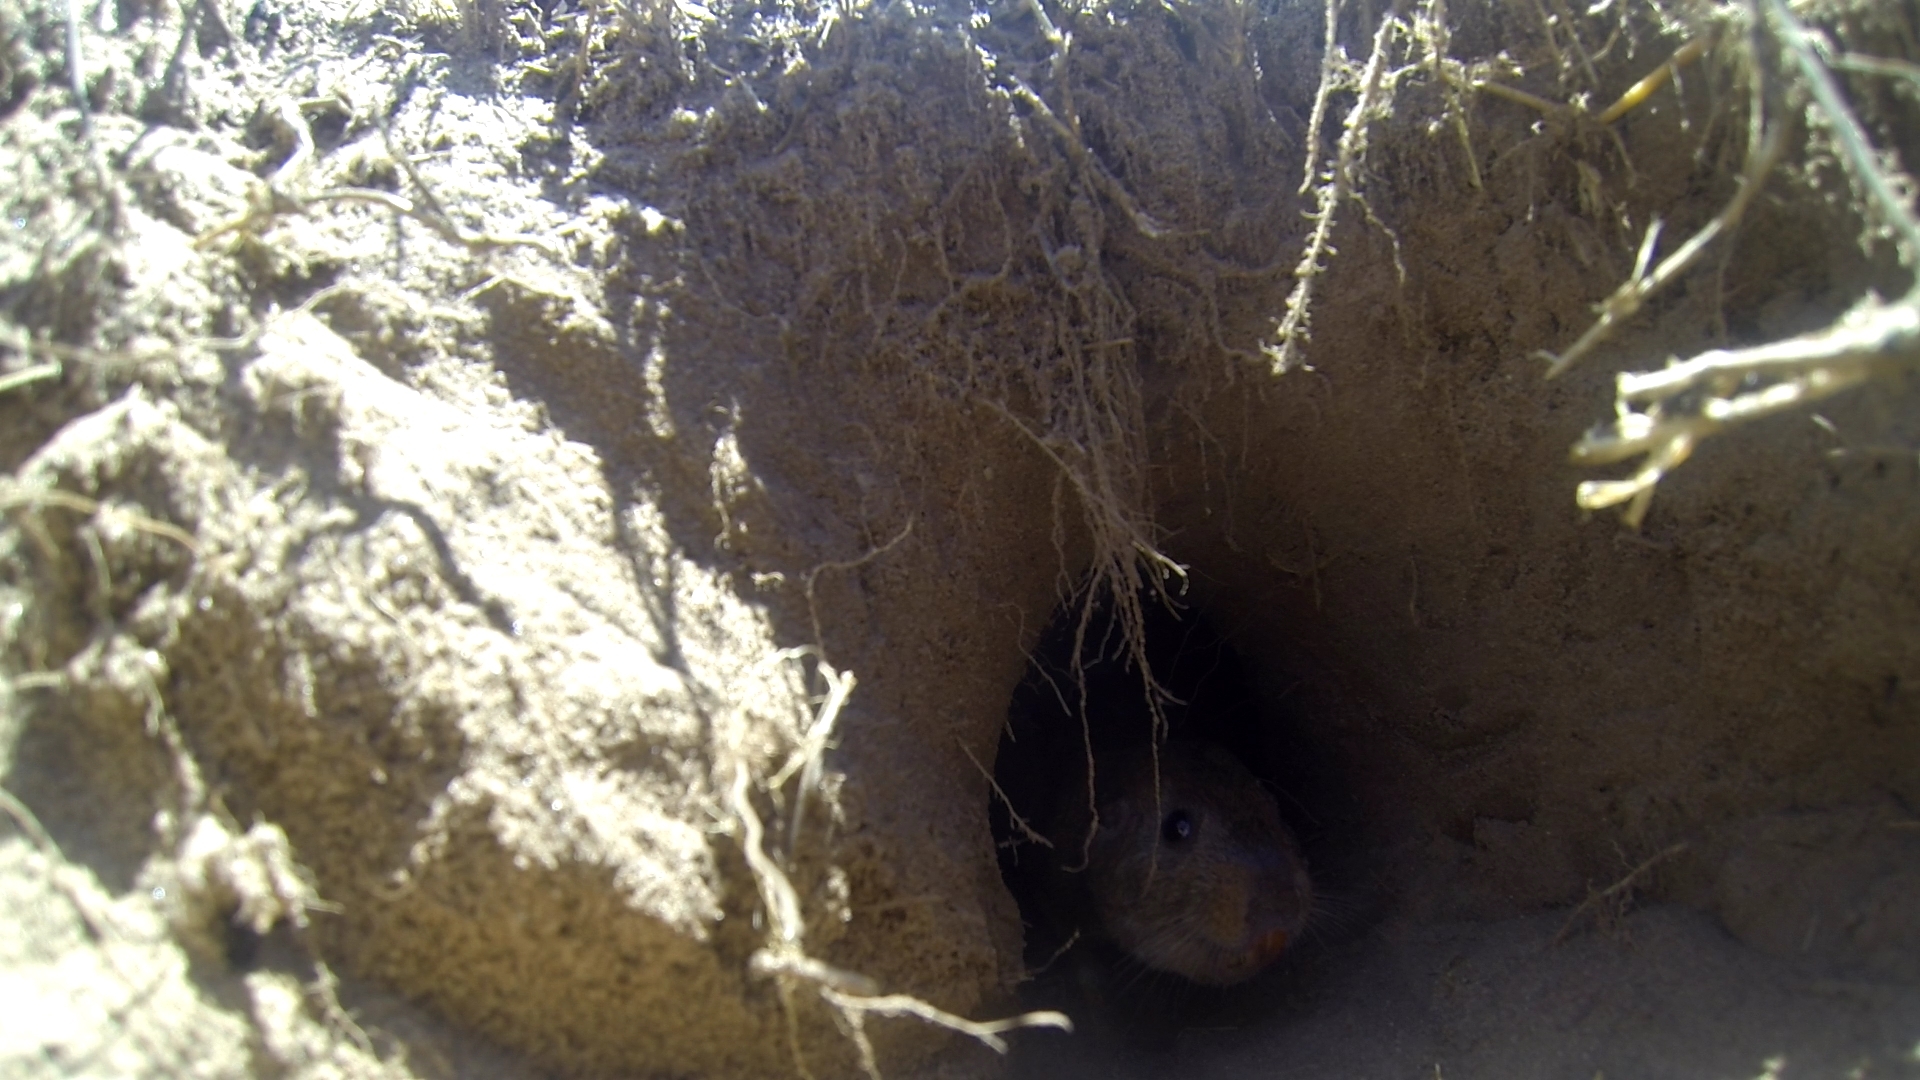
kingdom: Animalia
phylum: Chordata
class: Mammalia
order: Rodentia
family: Ctenomyidae
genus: Ctenomys
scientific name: Ctenomys rionegrensis
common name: Rio negro tuco-tuco
